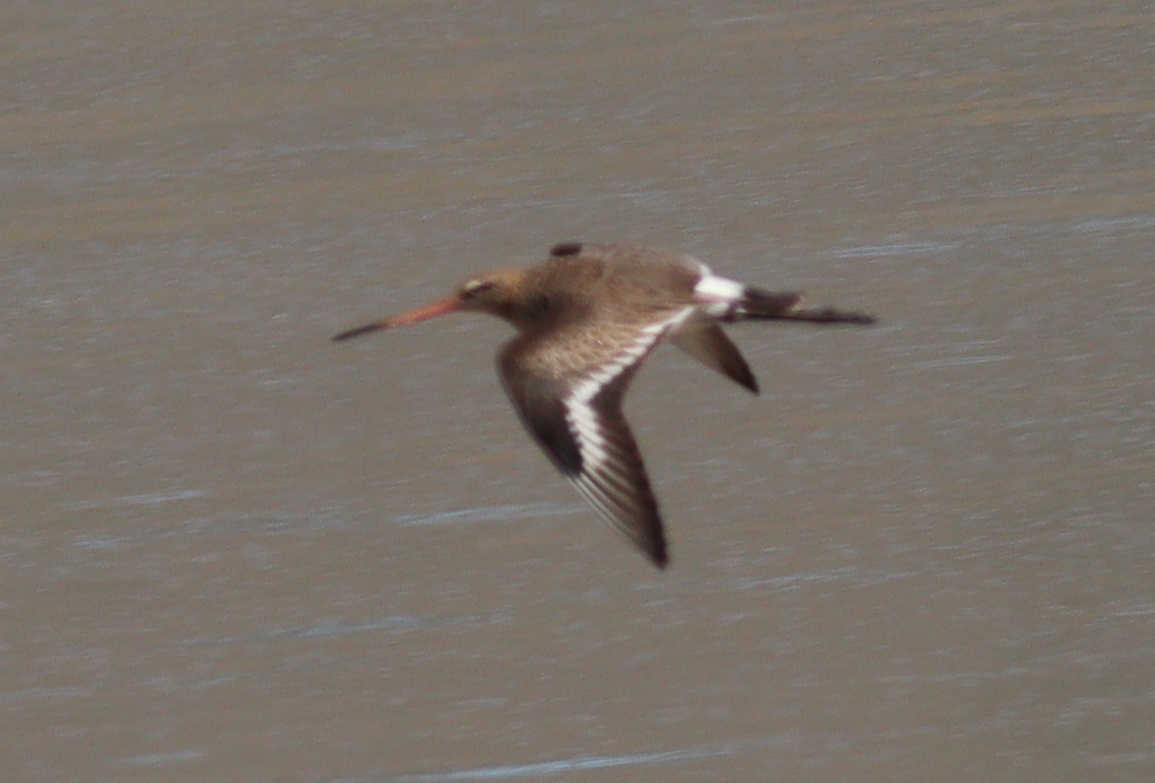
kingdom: Animalia
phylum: Chordata
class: Aves
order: Charadriiformes
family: Scolopacidae
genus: Limosa
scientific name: Limosa limosa
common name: Black-tailed godwit
